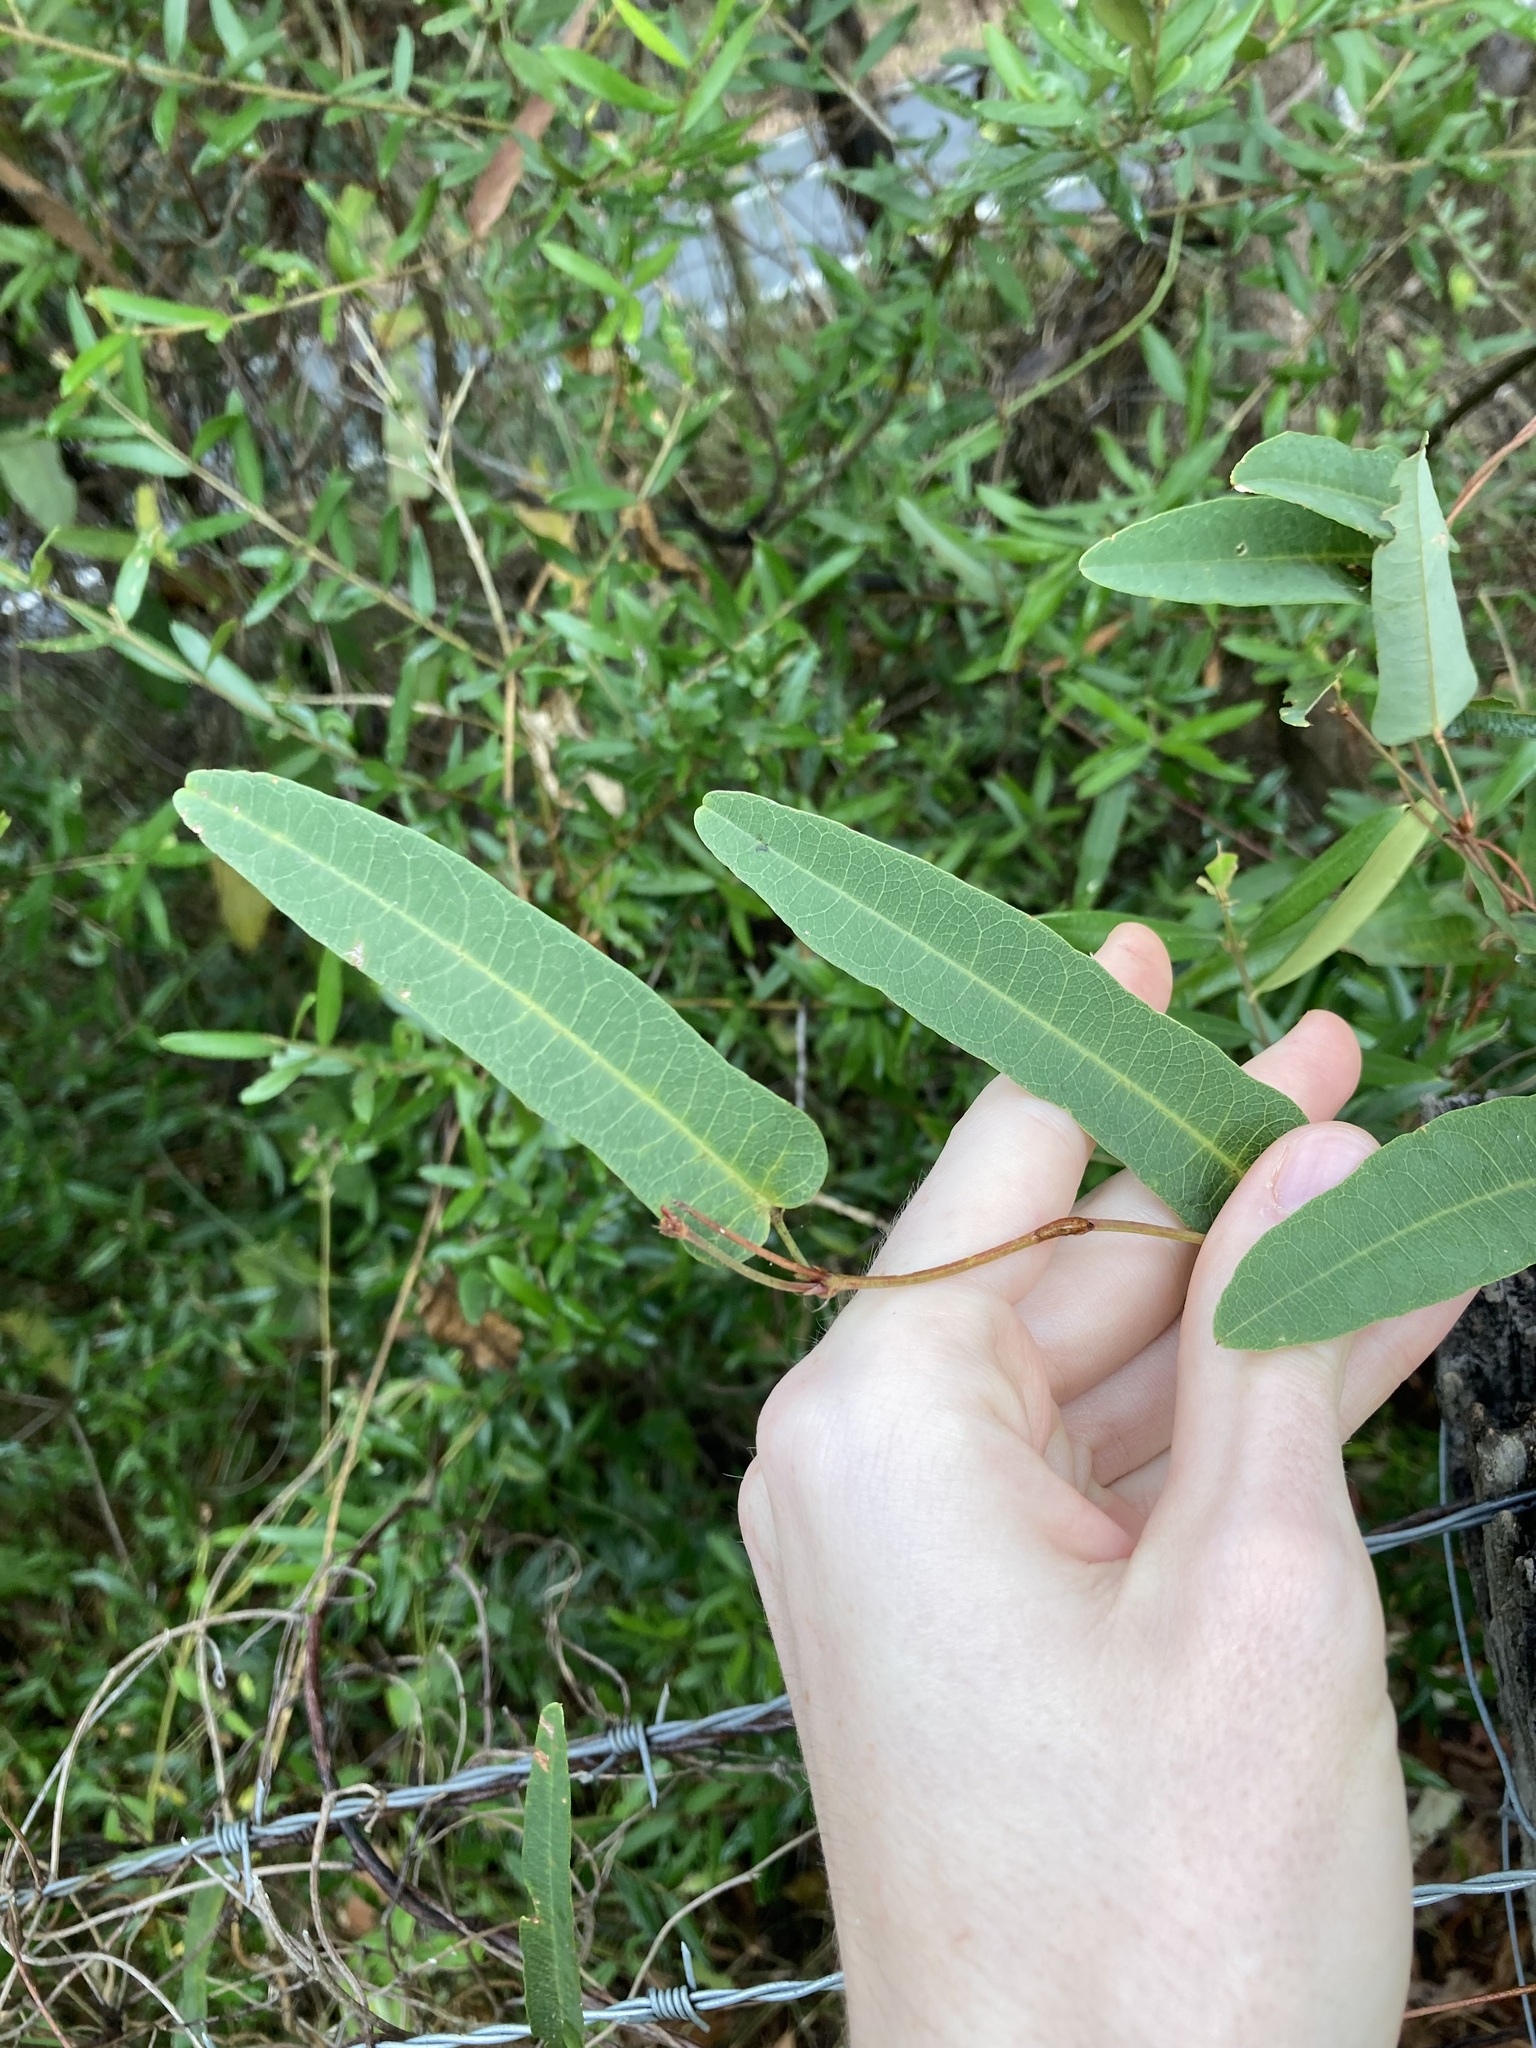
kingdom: Plantae
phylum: Tracheophyta
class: Magnoliopsida
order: Fabales
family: Fabaceae
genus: Hardenbergia
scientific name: Hardenbergia violacea
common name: Coral-pea
